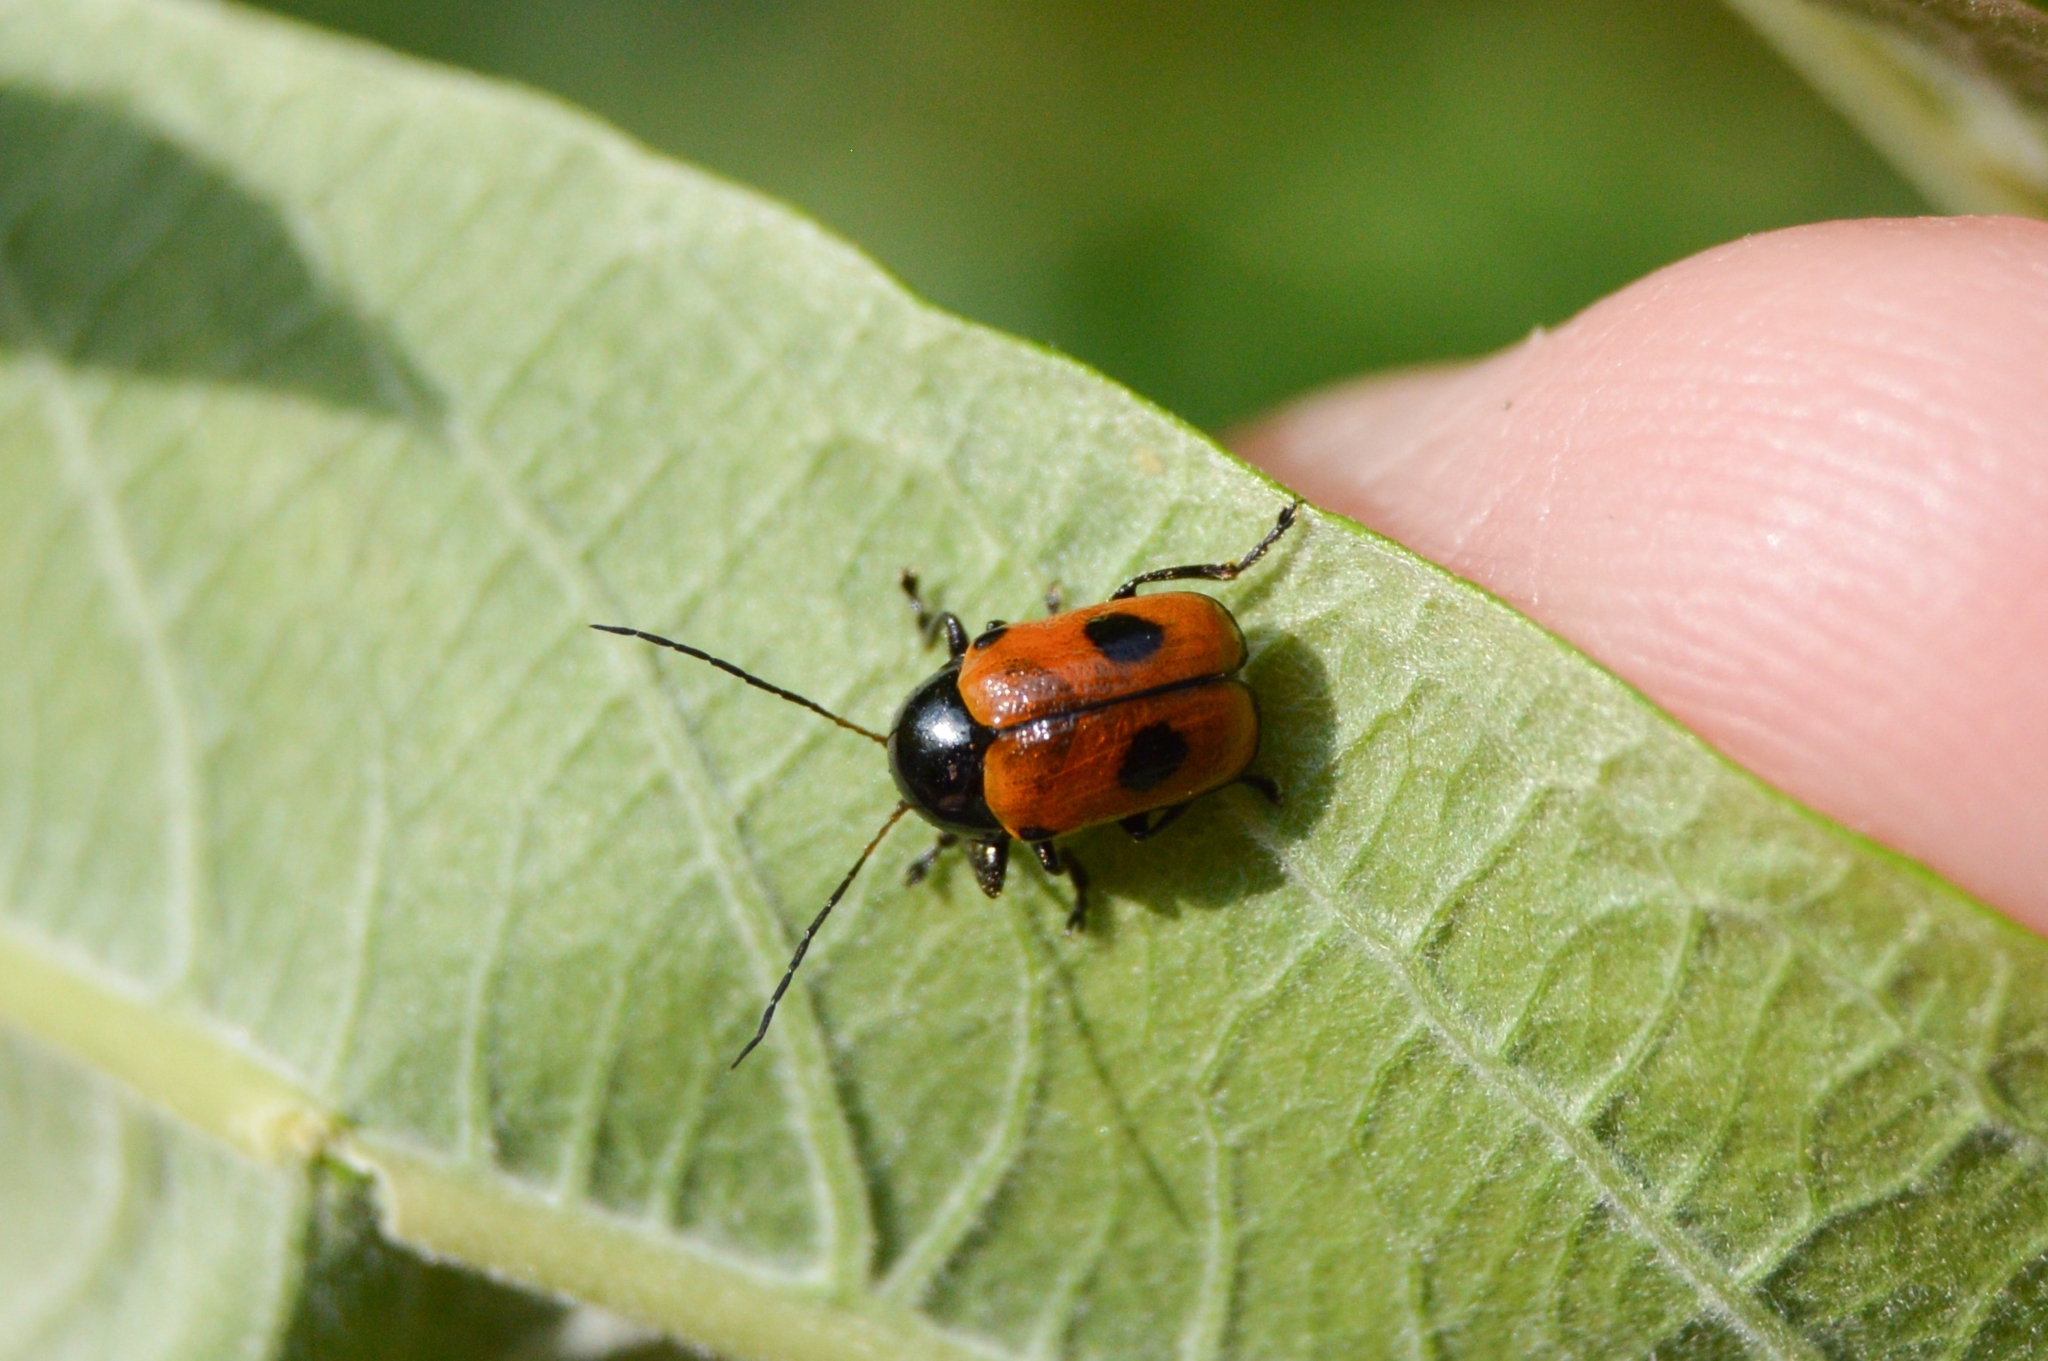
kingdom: Animalia
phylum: Arthropoda
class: Insecta
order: Coleoptera
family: Chrysomelidae
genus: Chiridopsis
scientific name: Chiridopsis bipunctata
